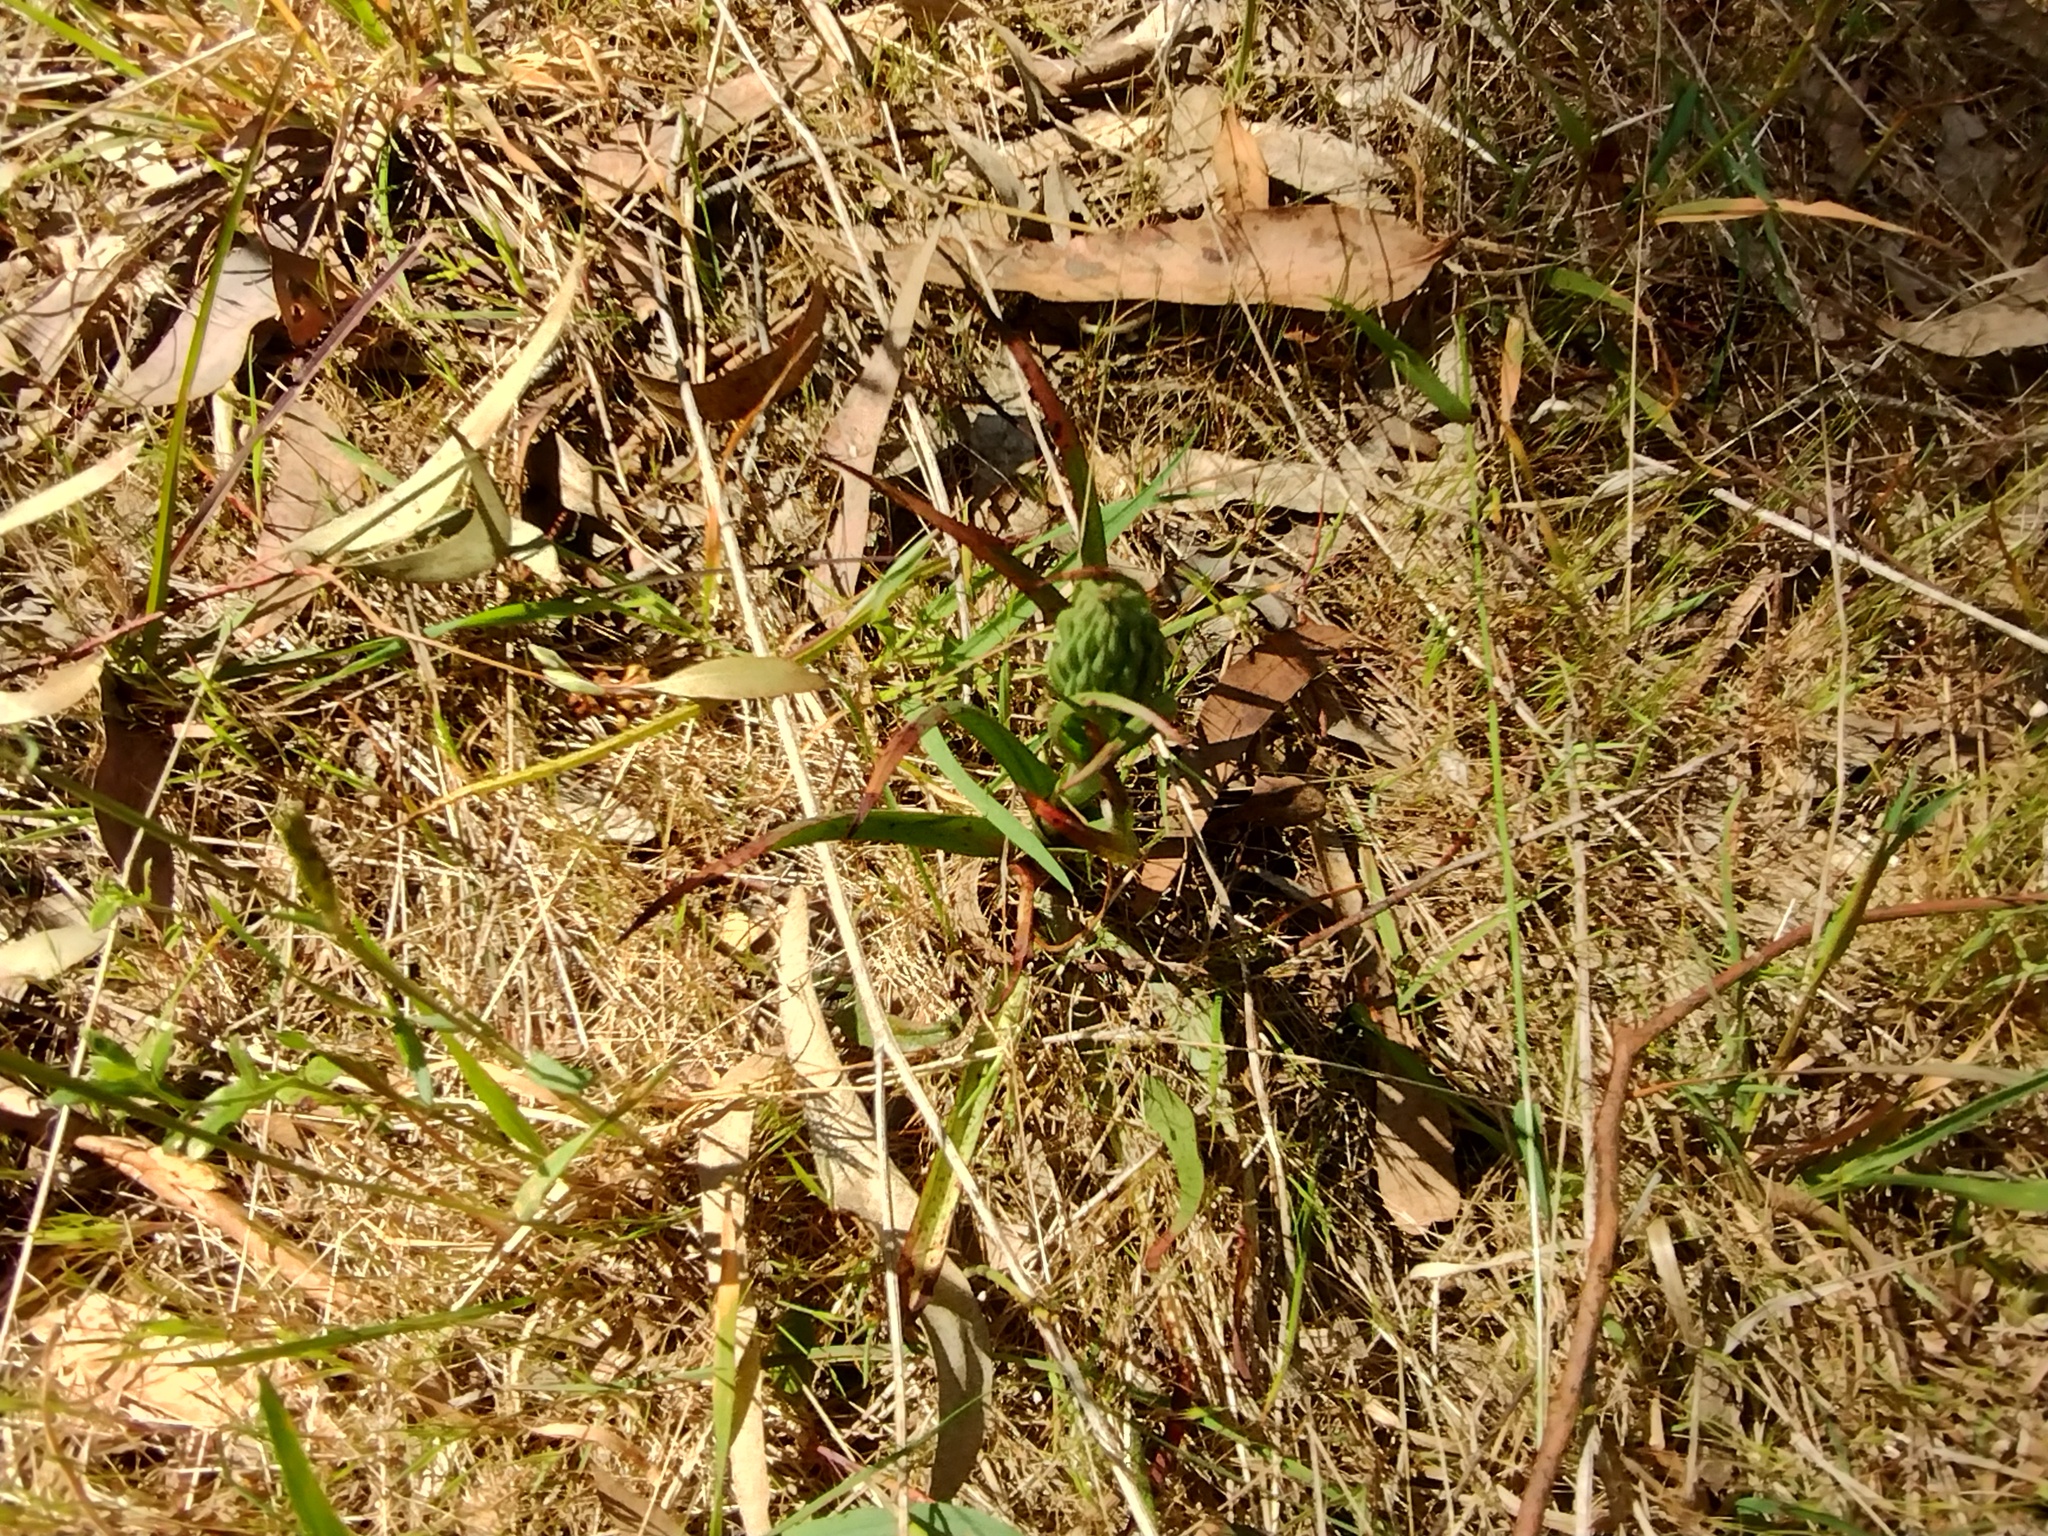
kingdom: Plantae
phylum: Tracheophyta
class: Liliopsida
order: Asparagales
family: Orchidaceae
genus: Disa
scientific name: Disa bracteata
